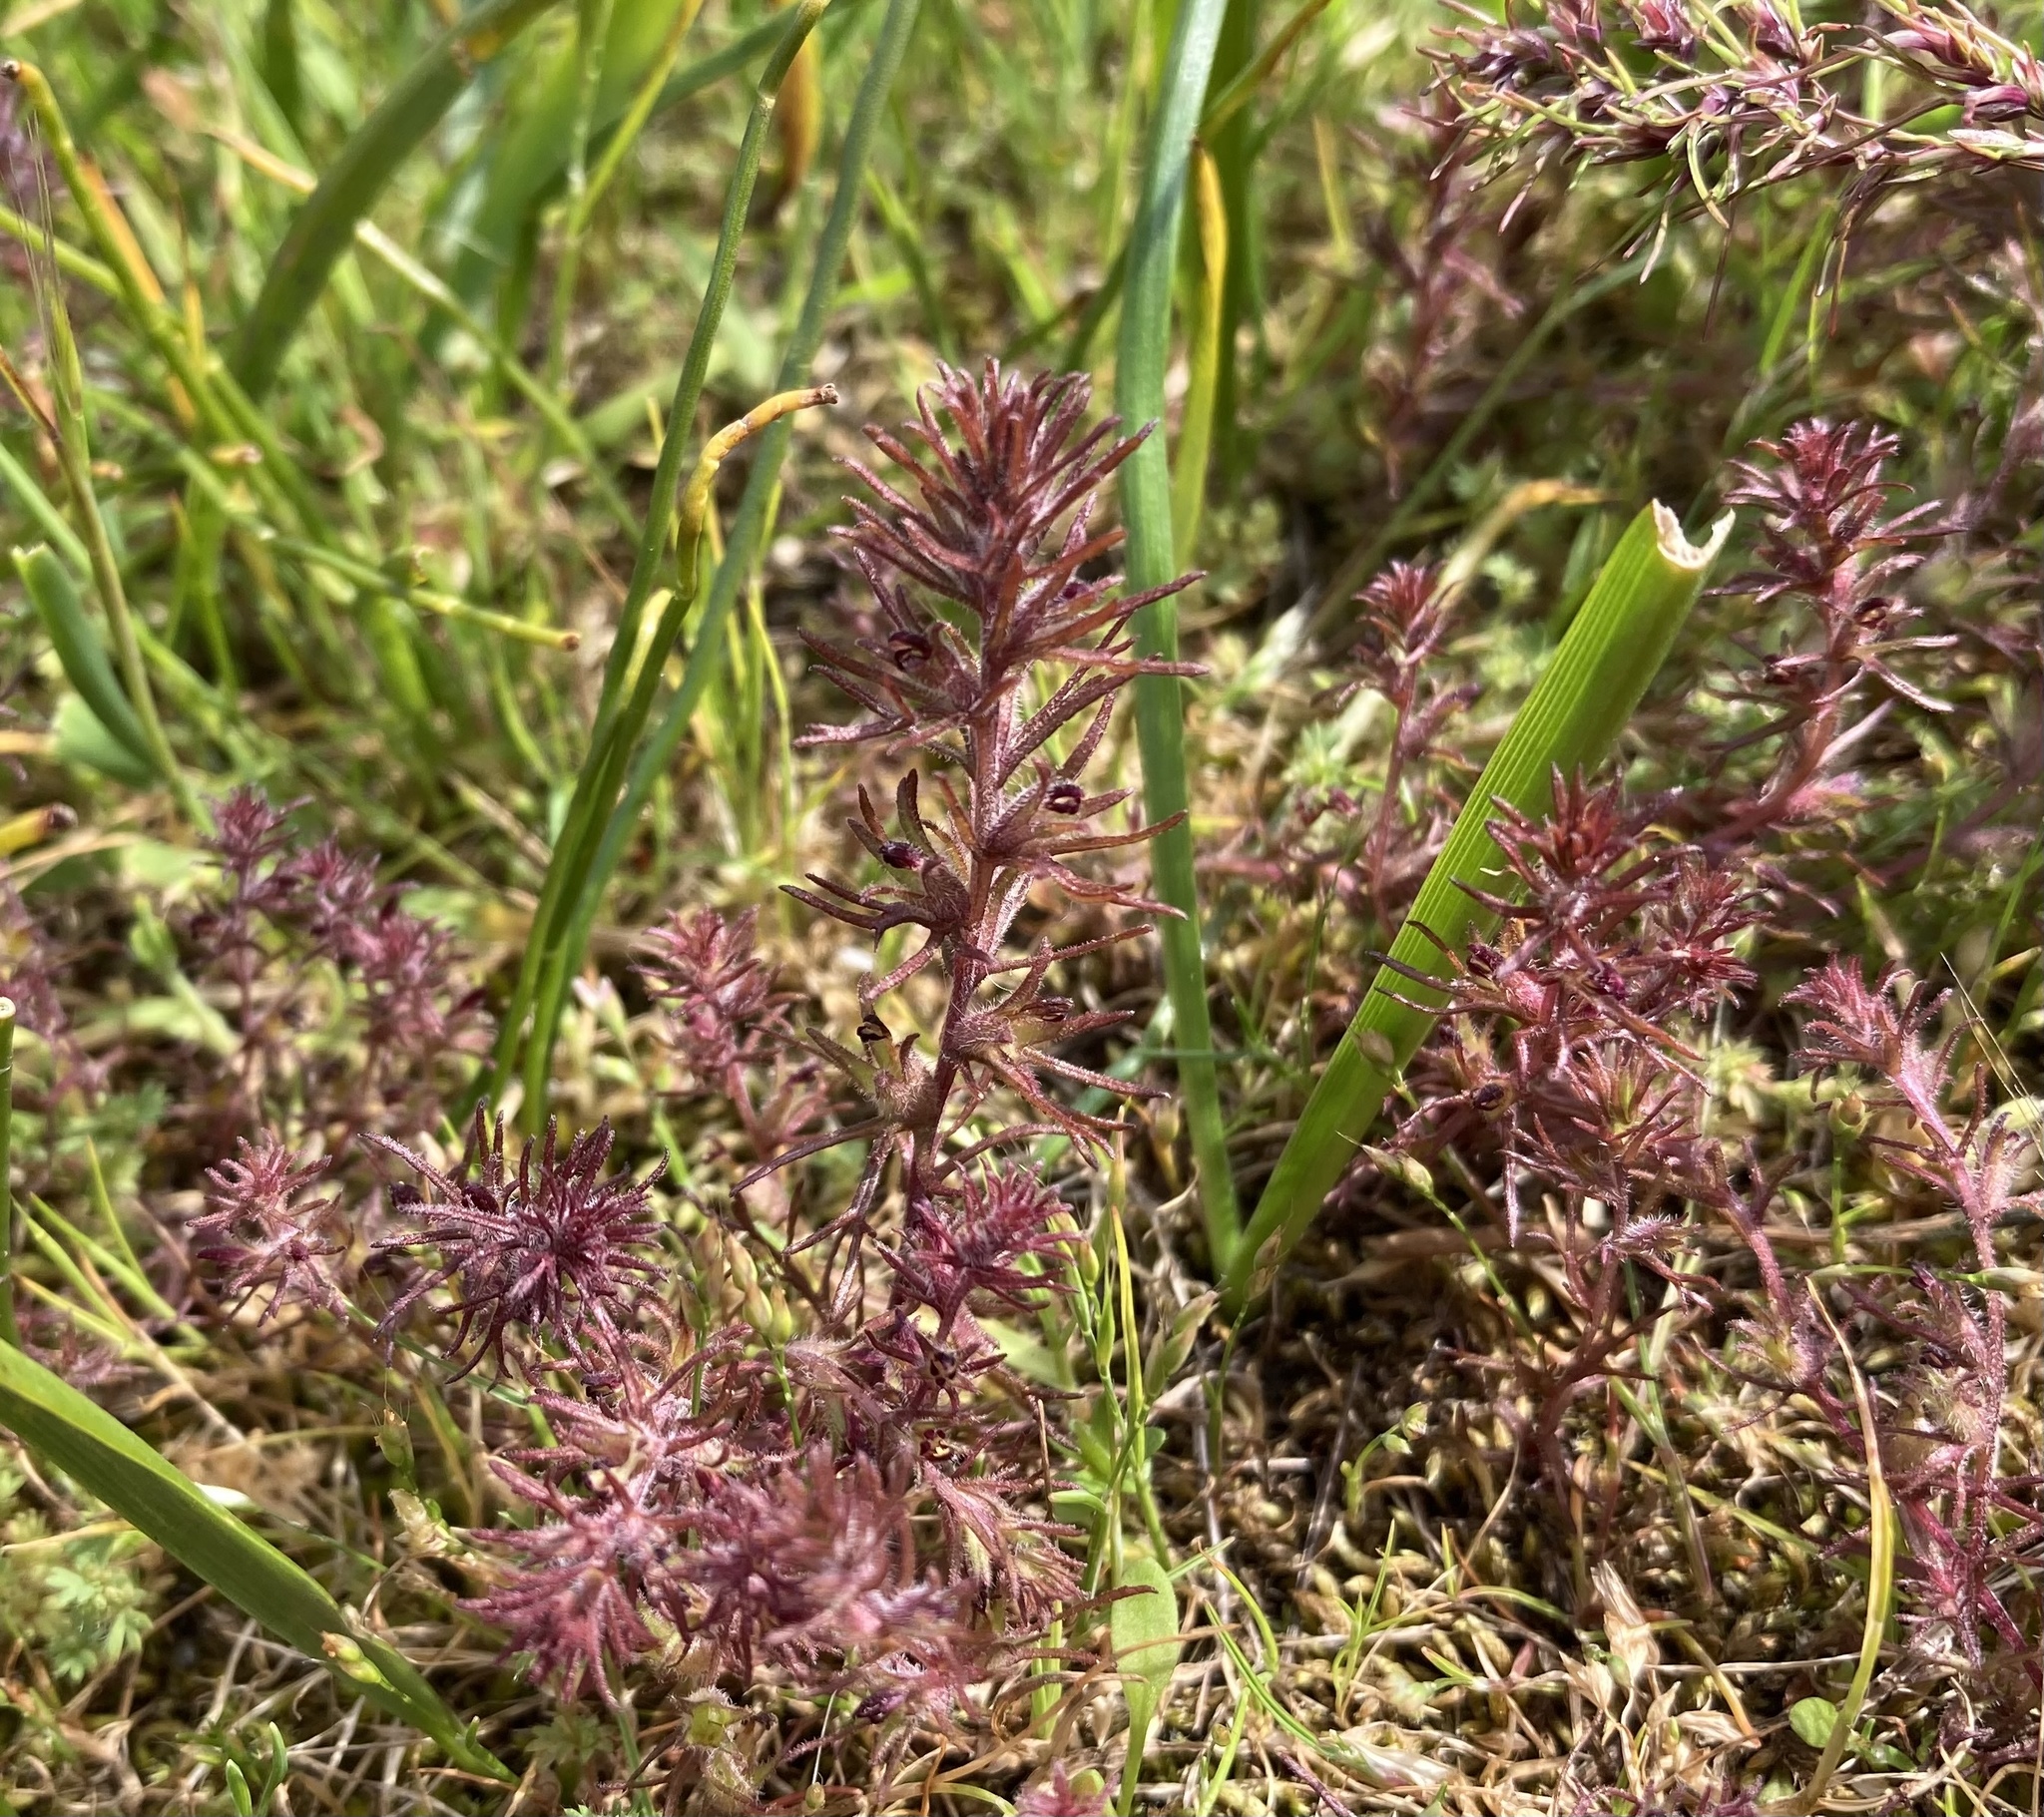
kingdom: Plantae
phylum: Tracheophyta
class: Magnoliopsida
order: Lamiales
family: Orobanchaceae
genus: Triphysaria
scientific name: Triphysaria pusilla
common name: Dwarf false owl-clover
